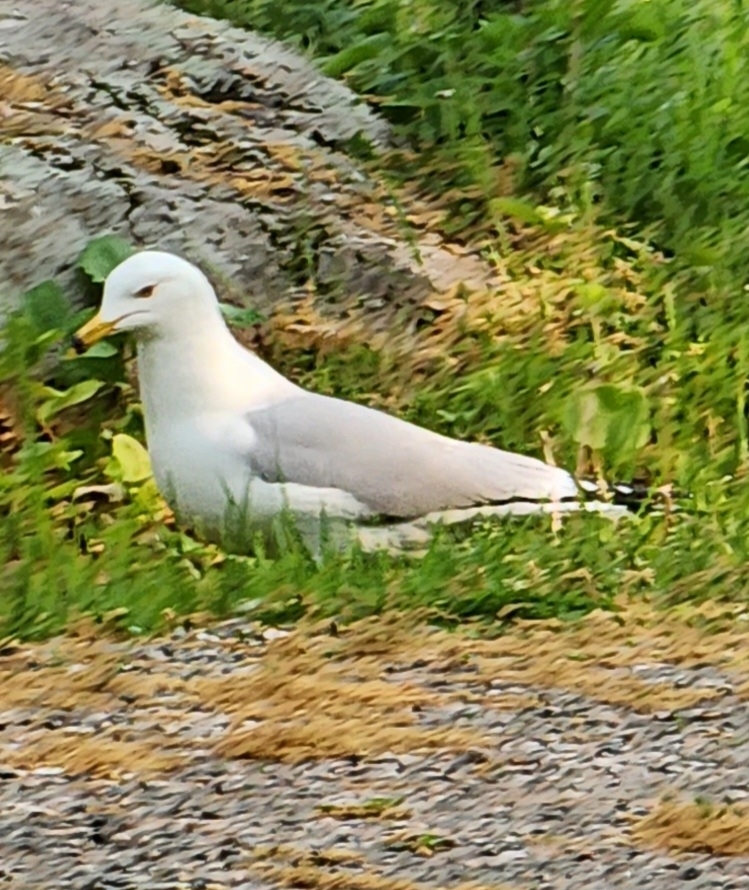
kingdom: Animalia
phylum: Chordata
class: Aves
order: Charadriiformes
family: Laridae
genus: Larus
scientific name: Larus delawarensis
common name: Ring-billed gull
